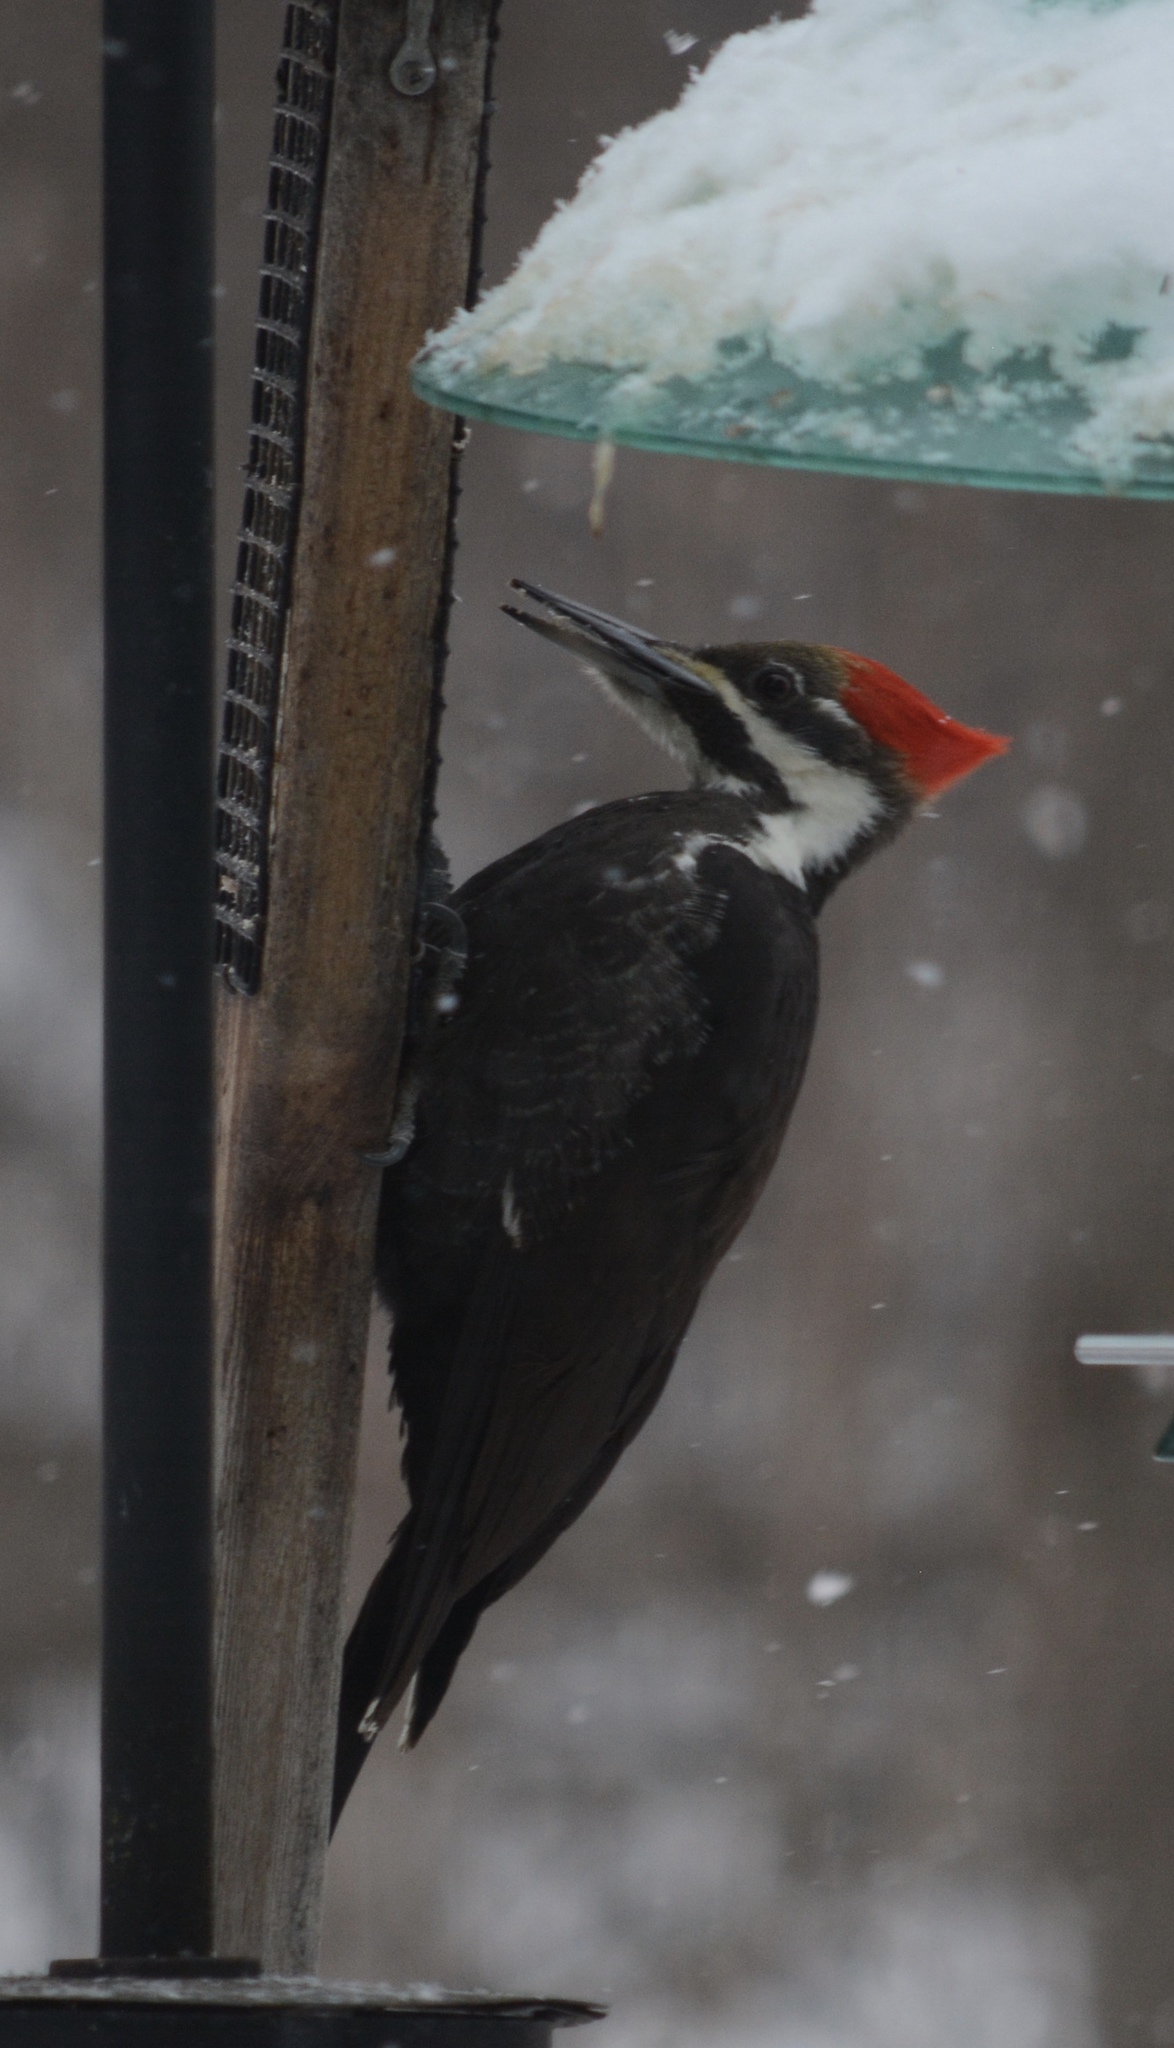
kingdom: Animalia
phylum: Chordata
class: Aves
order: Piciformes
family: Picidae
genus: Dryocopus
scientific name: Dryocopus pileatus
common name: Pileated woodpecker
